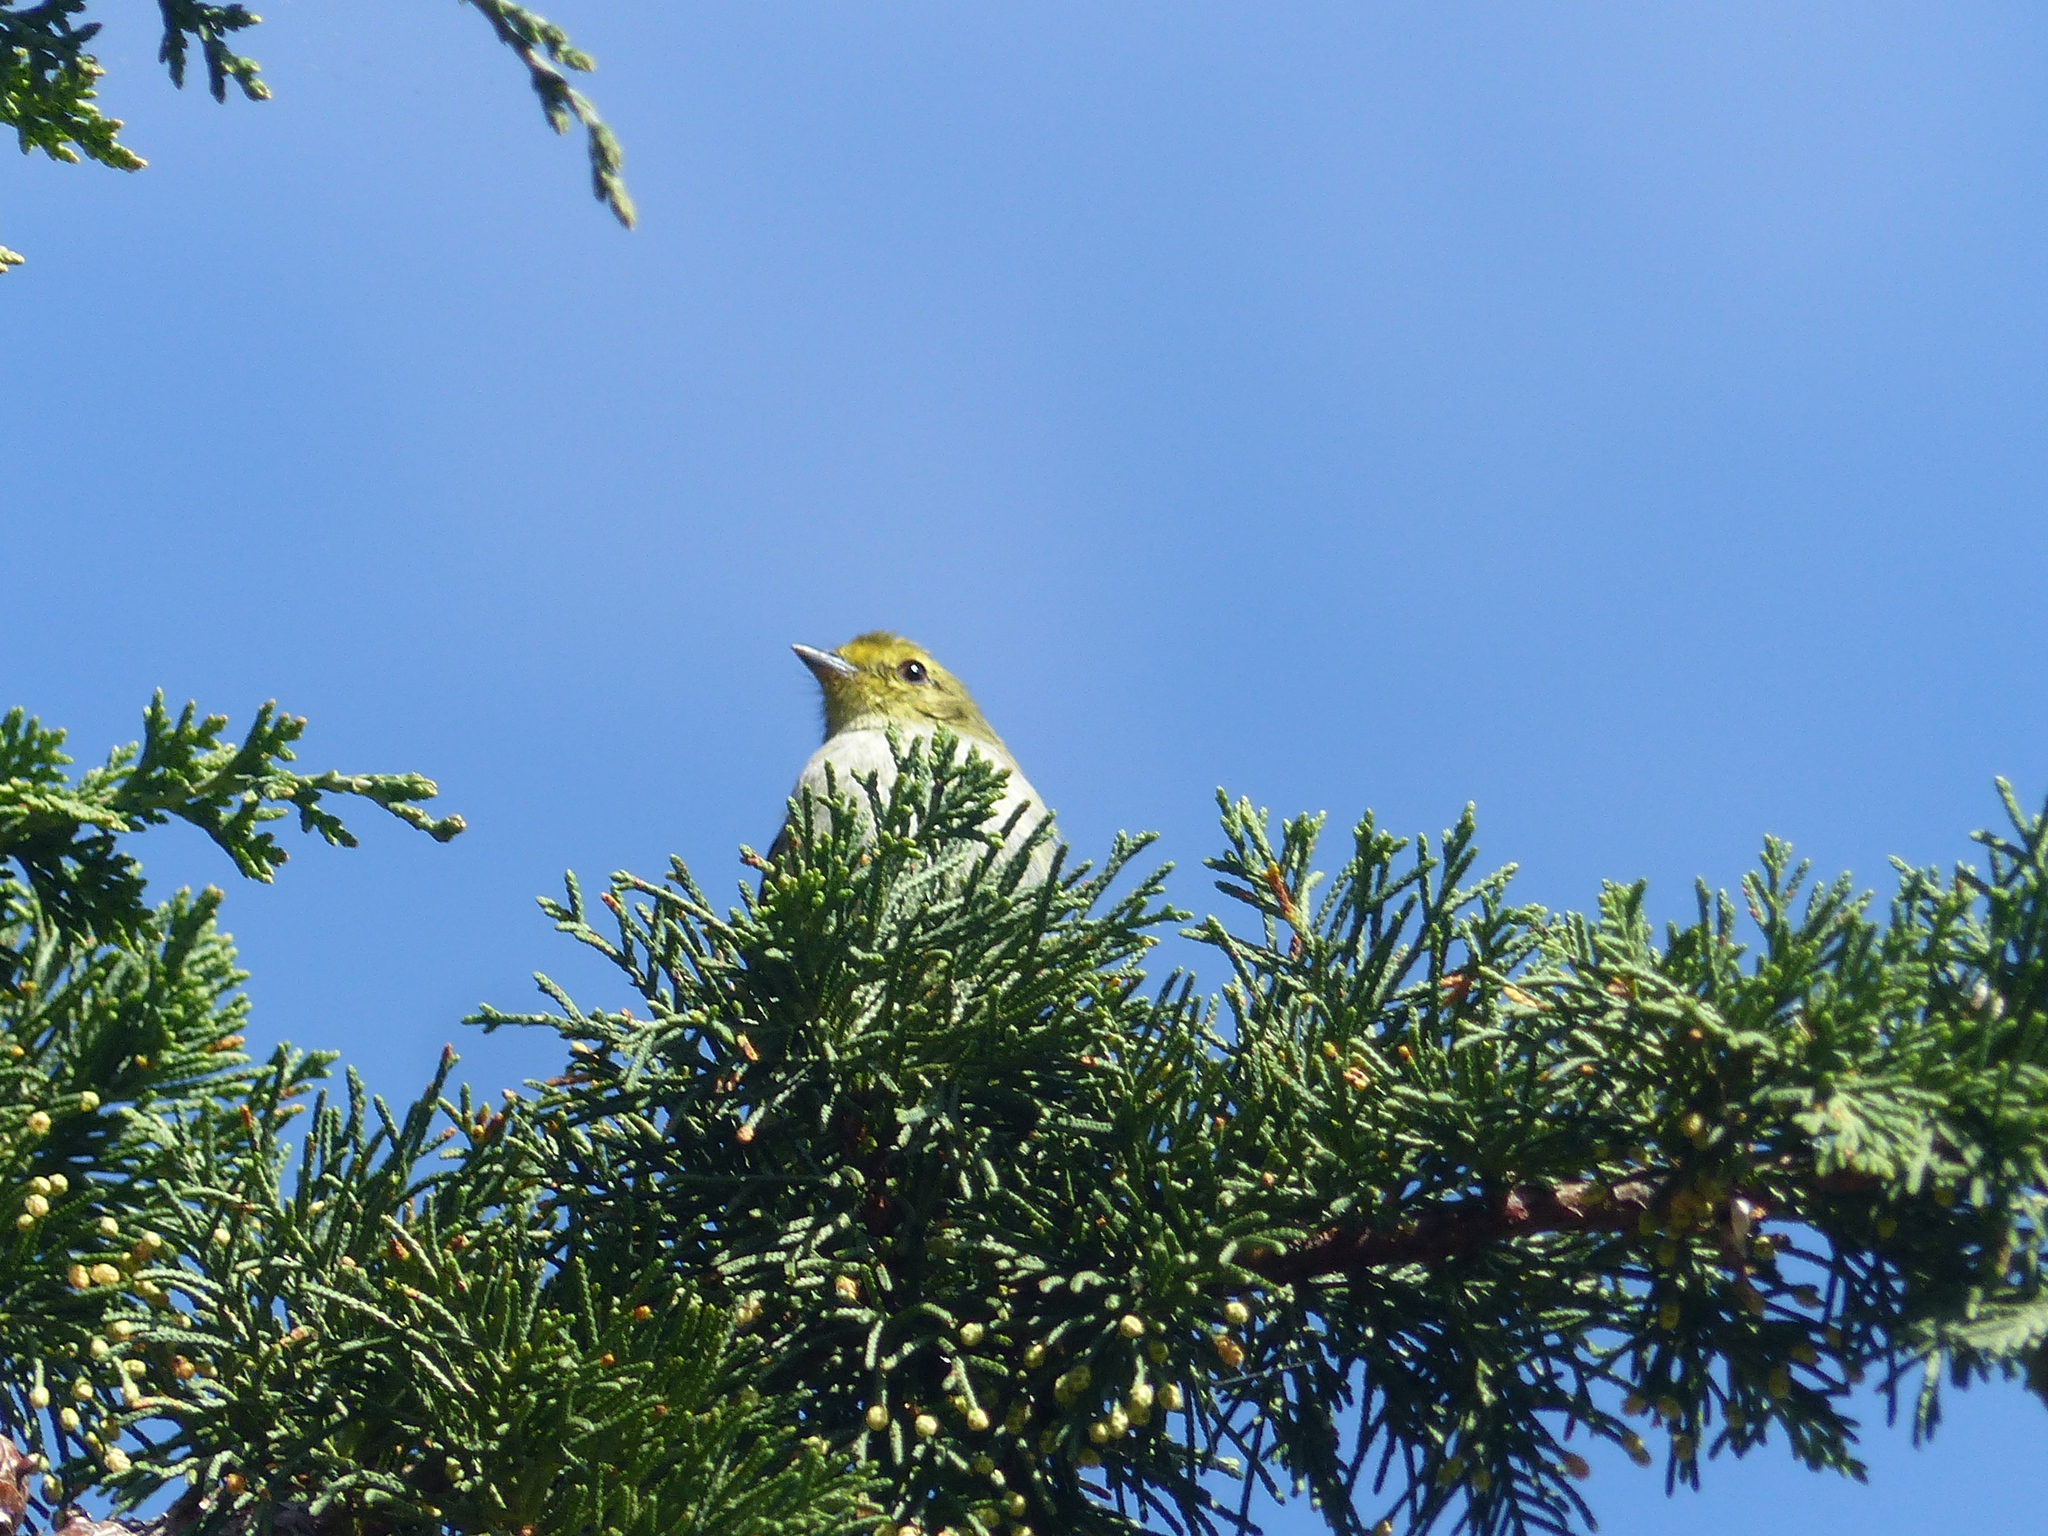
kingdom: Animalia
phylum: Chordata
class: Aves
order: Passeriformes
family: Tyrannidae
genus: Zimmerius
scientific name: Zimmerius chrysops
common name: Golden-faced tyrannulet
